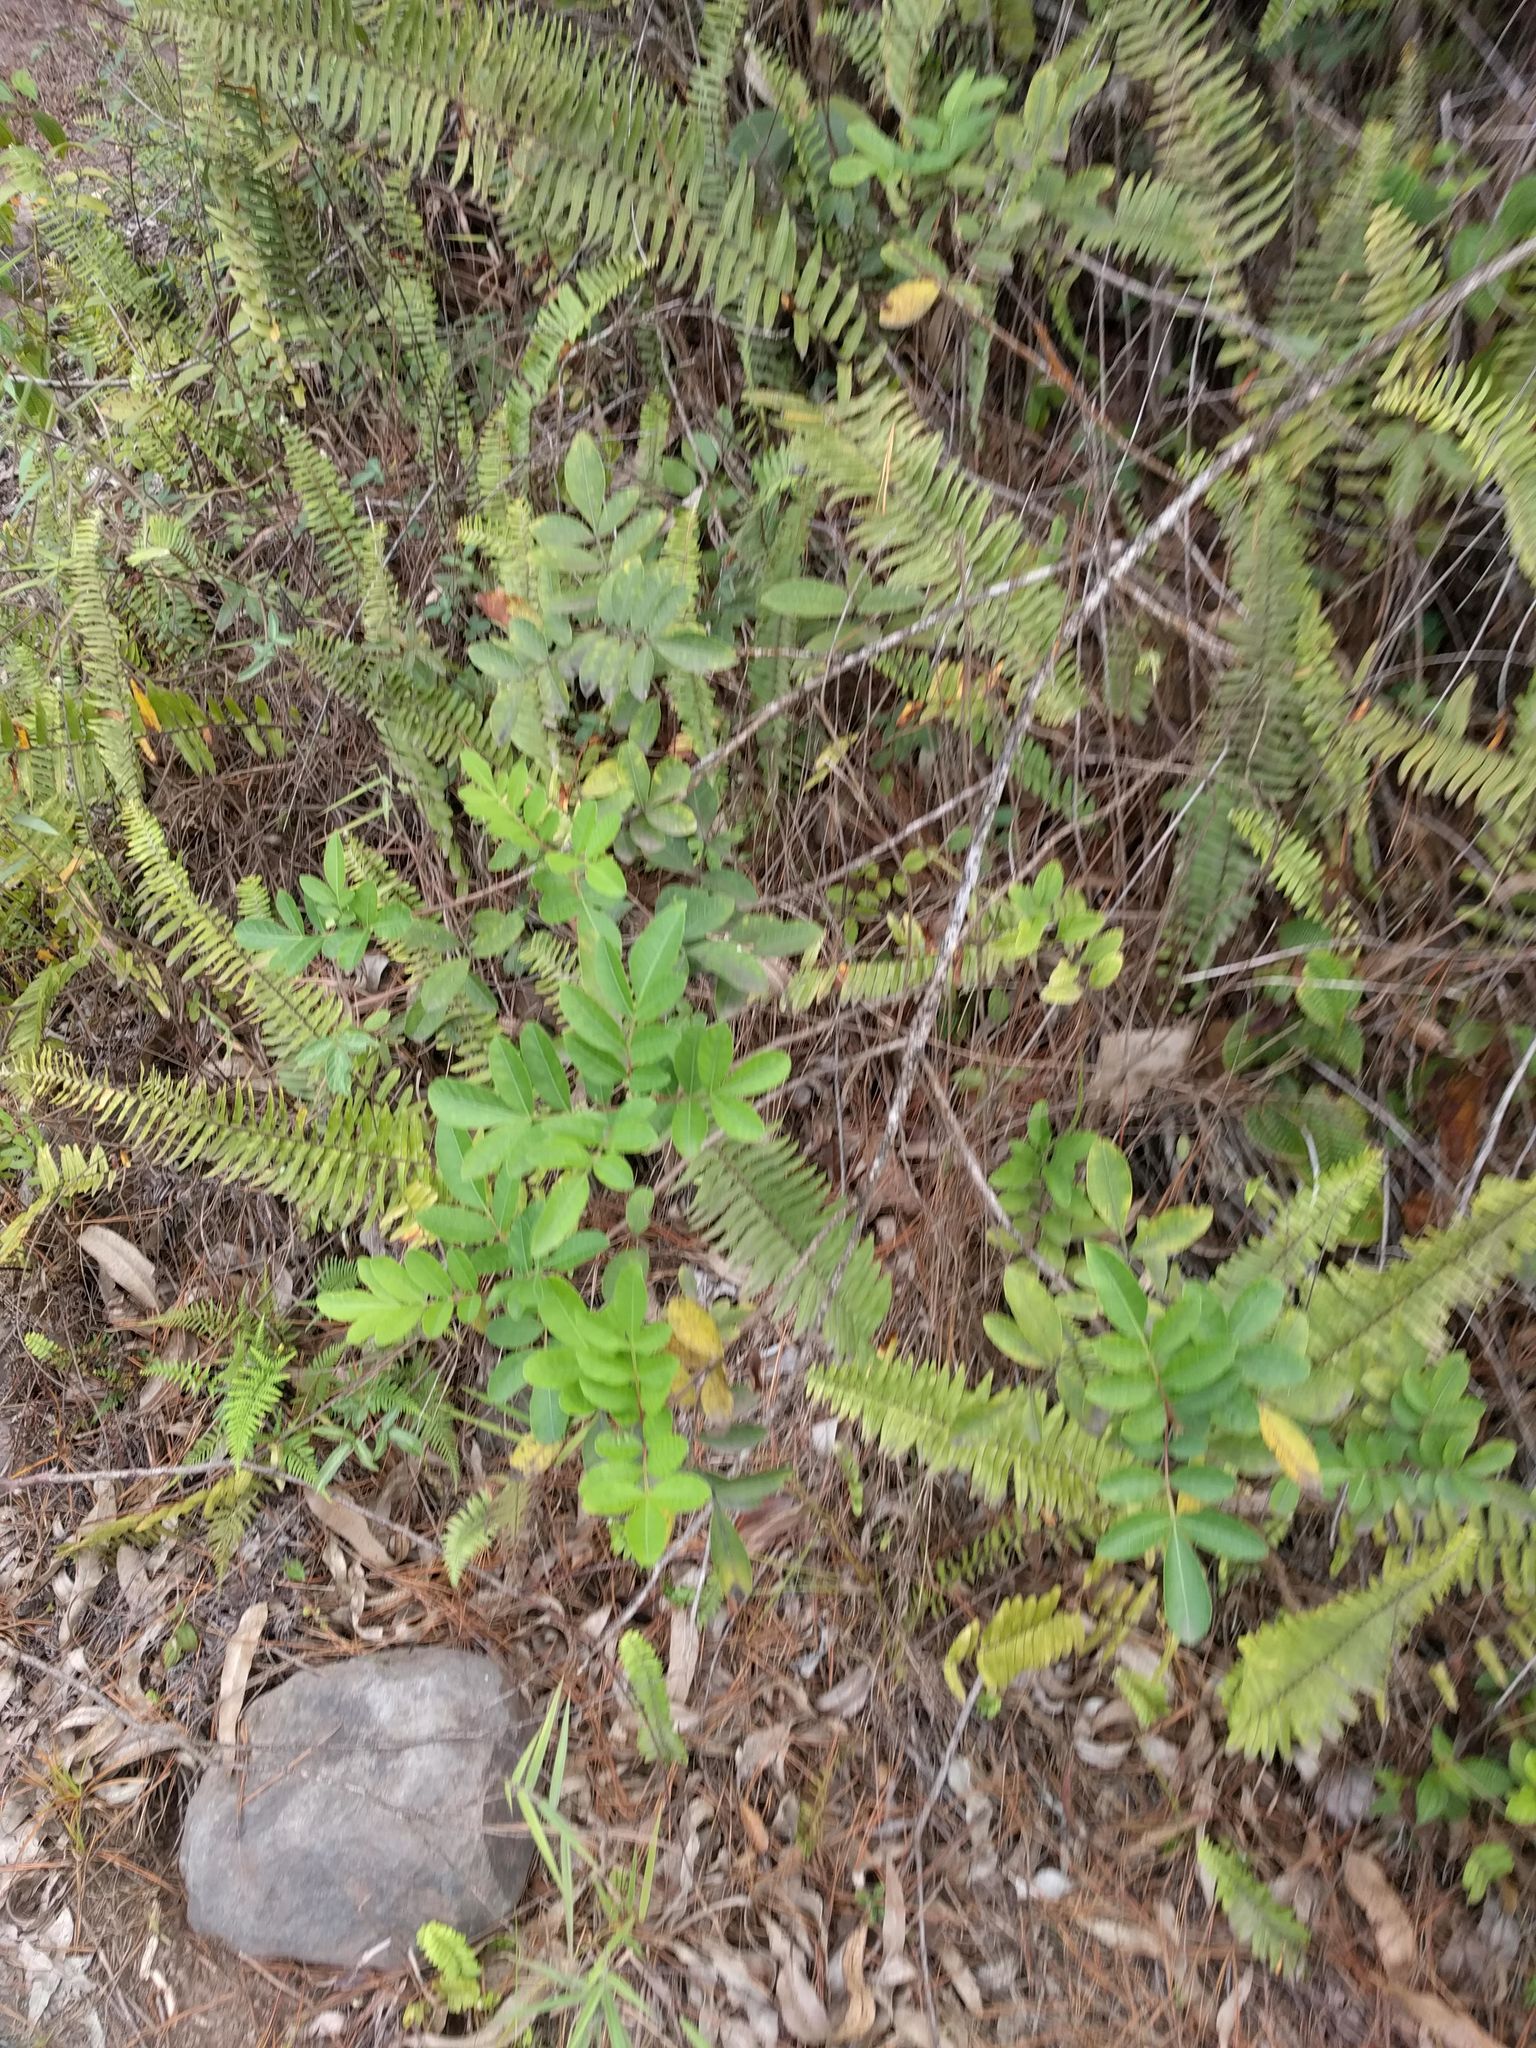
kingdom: Plantae
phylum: Tracheophyta
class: Magnoliopsida
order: Sapindales
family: Anacardiaceae
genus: Schinus
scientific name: Schinus terebinthifolia
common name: Brazilian peppertree
